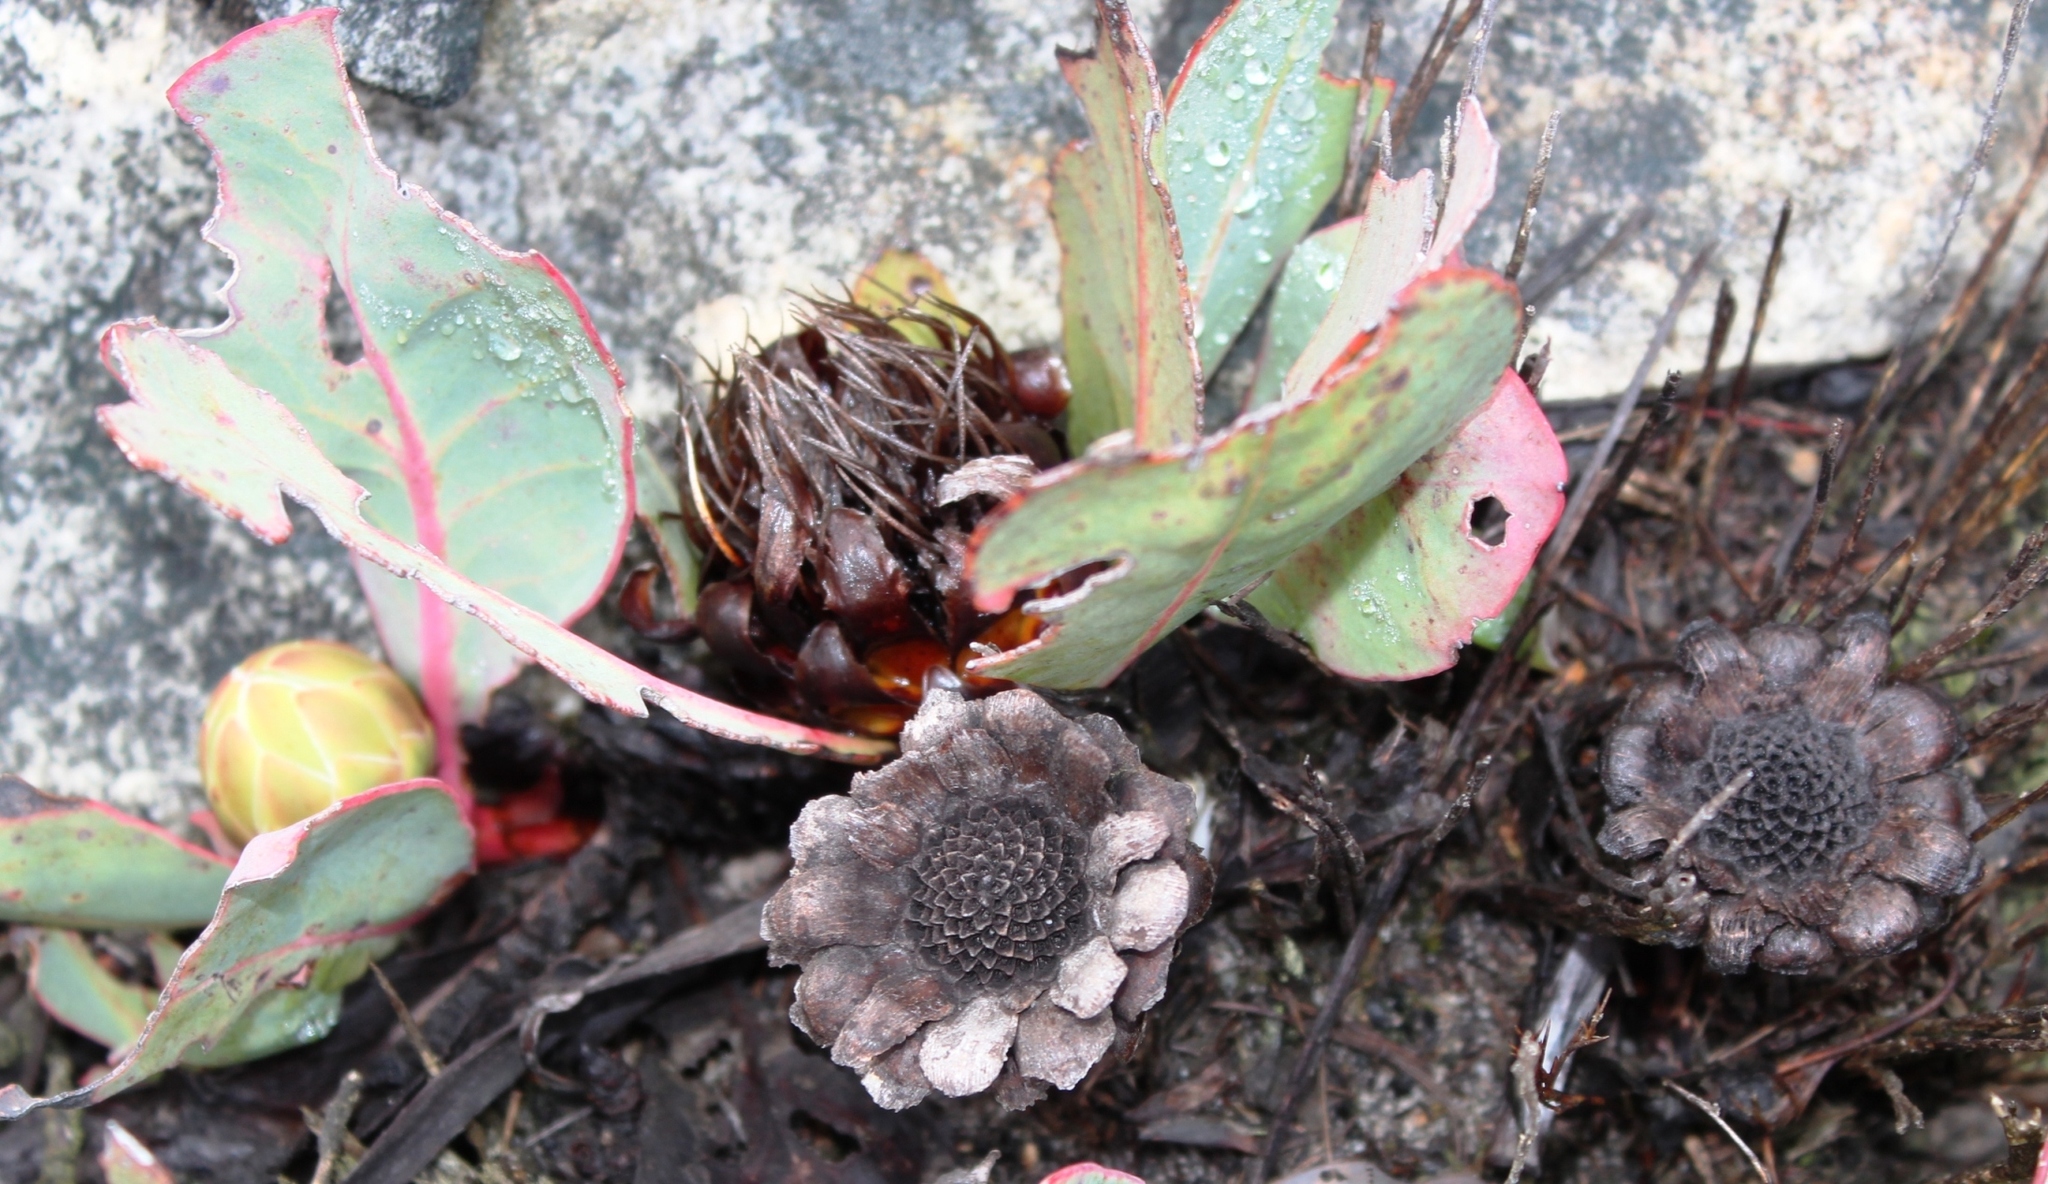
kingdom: Plantae
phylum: Tracheophyta
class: Magnoliopsida
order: Proteales
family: Proteaceae
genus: Protea
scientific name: Protea acaulos
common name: Common ground sugarbush
